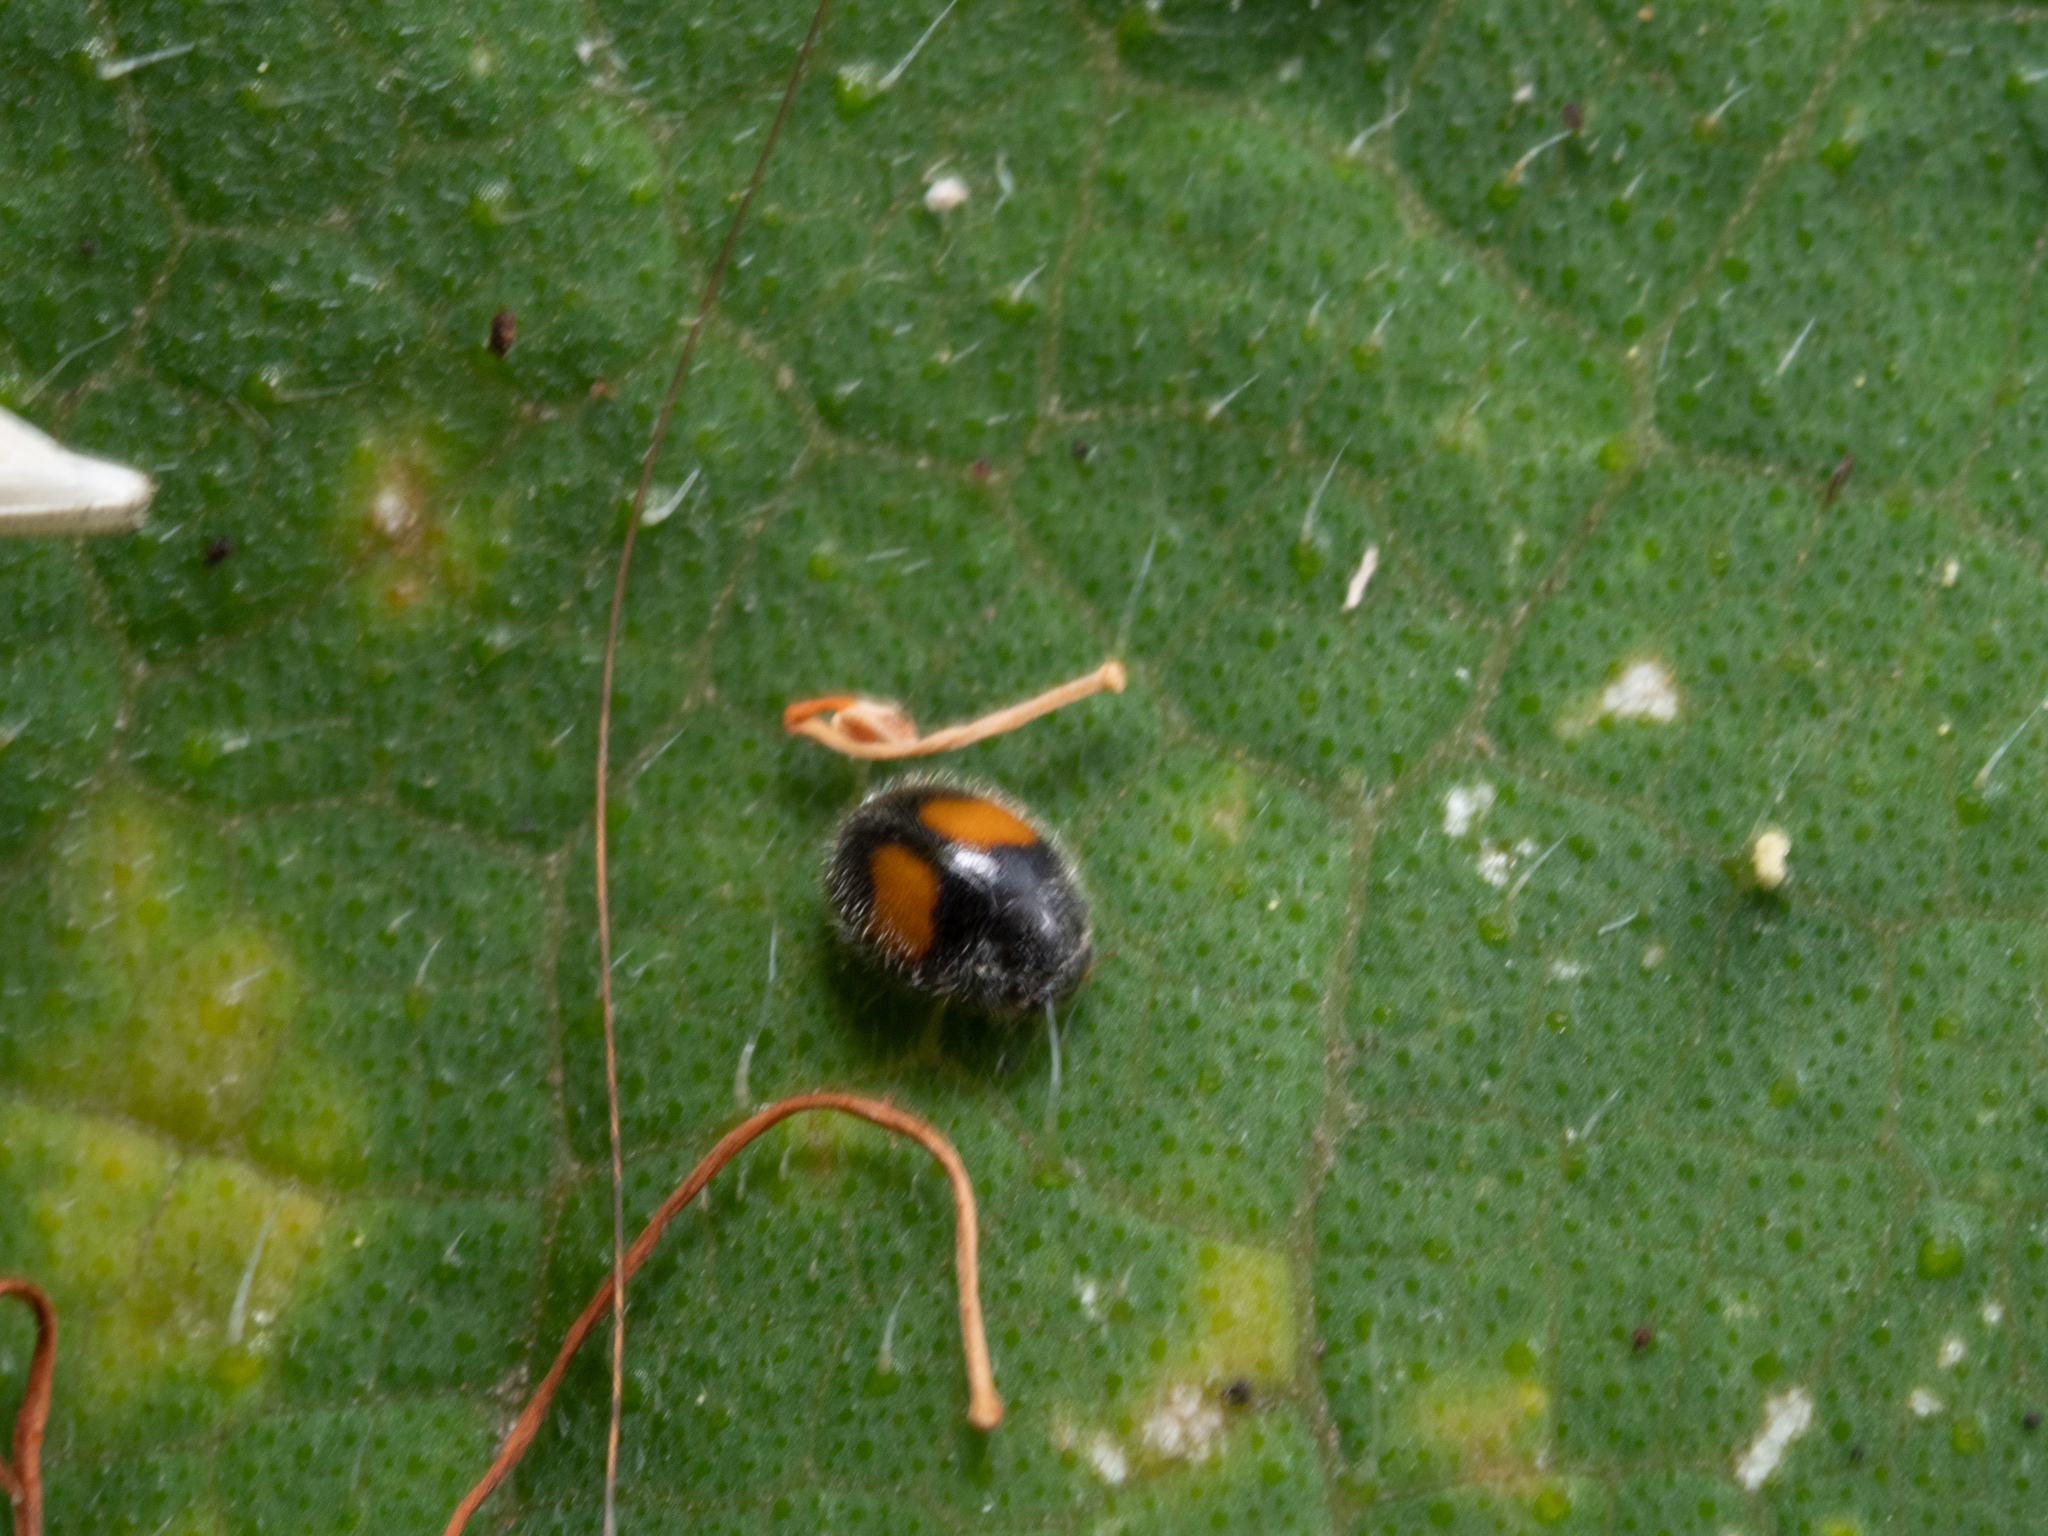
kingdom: Animalia
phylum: Arthropoda
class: Insecta
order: Coleoptera
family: Coccinellidae
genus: Scymnus
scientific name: Scymnus notescens
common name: Minute two-spotted ladybird beetle
